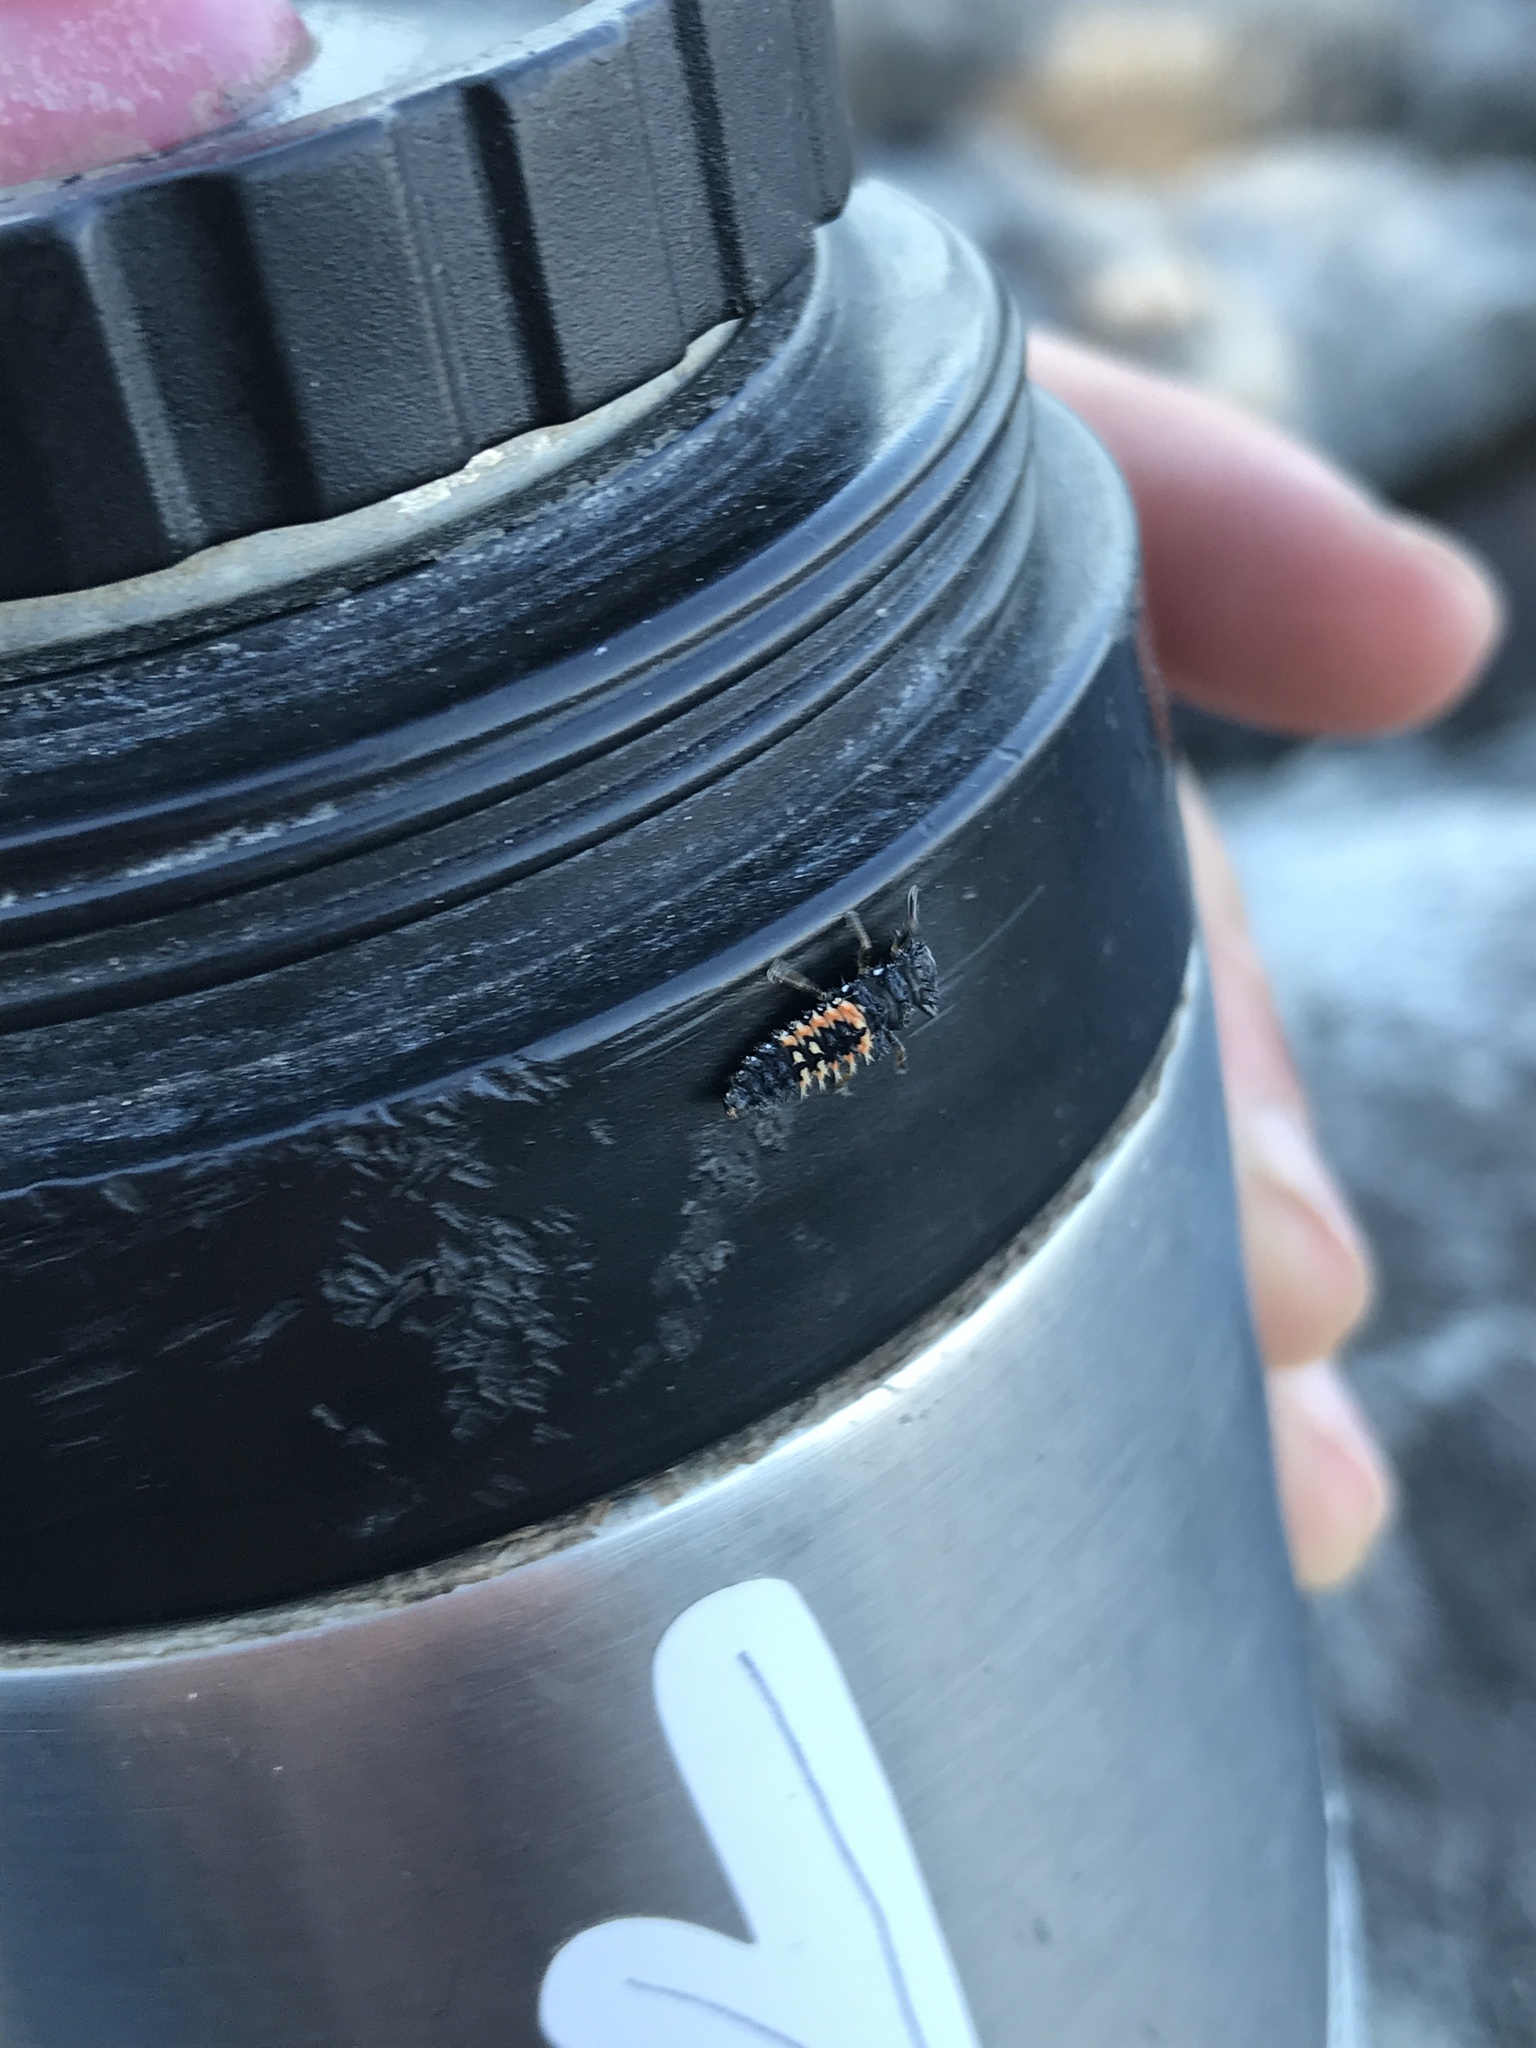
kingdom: Animalia
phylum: Arthropoda
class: Insecta
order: Coleoptera
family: Coccinellidae
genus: Harmonia
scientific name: Harmonia axyridis
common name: Harlequin ladybird
